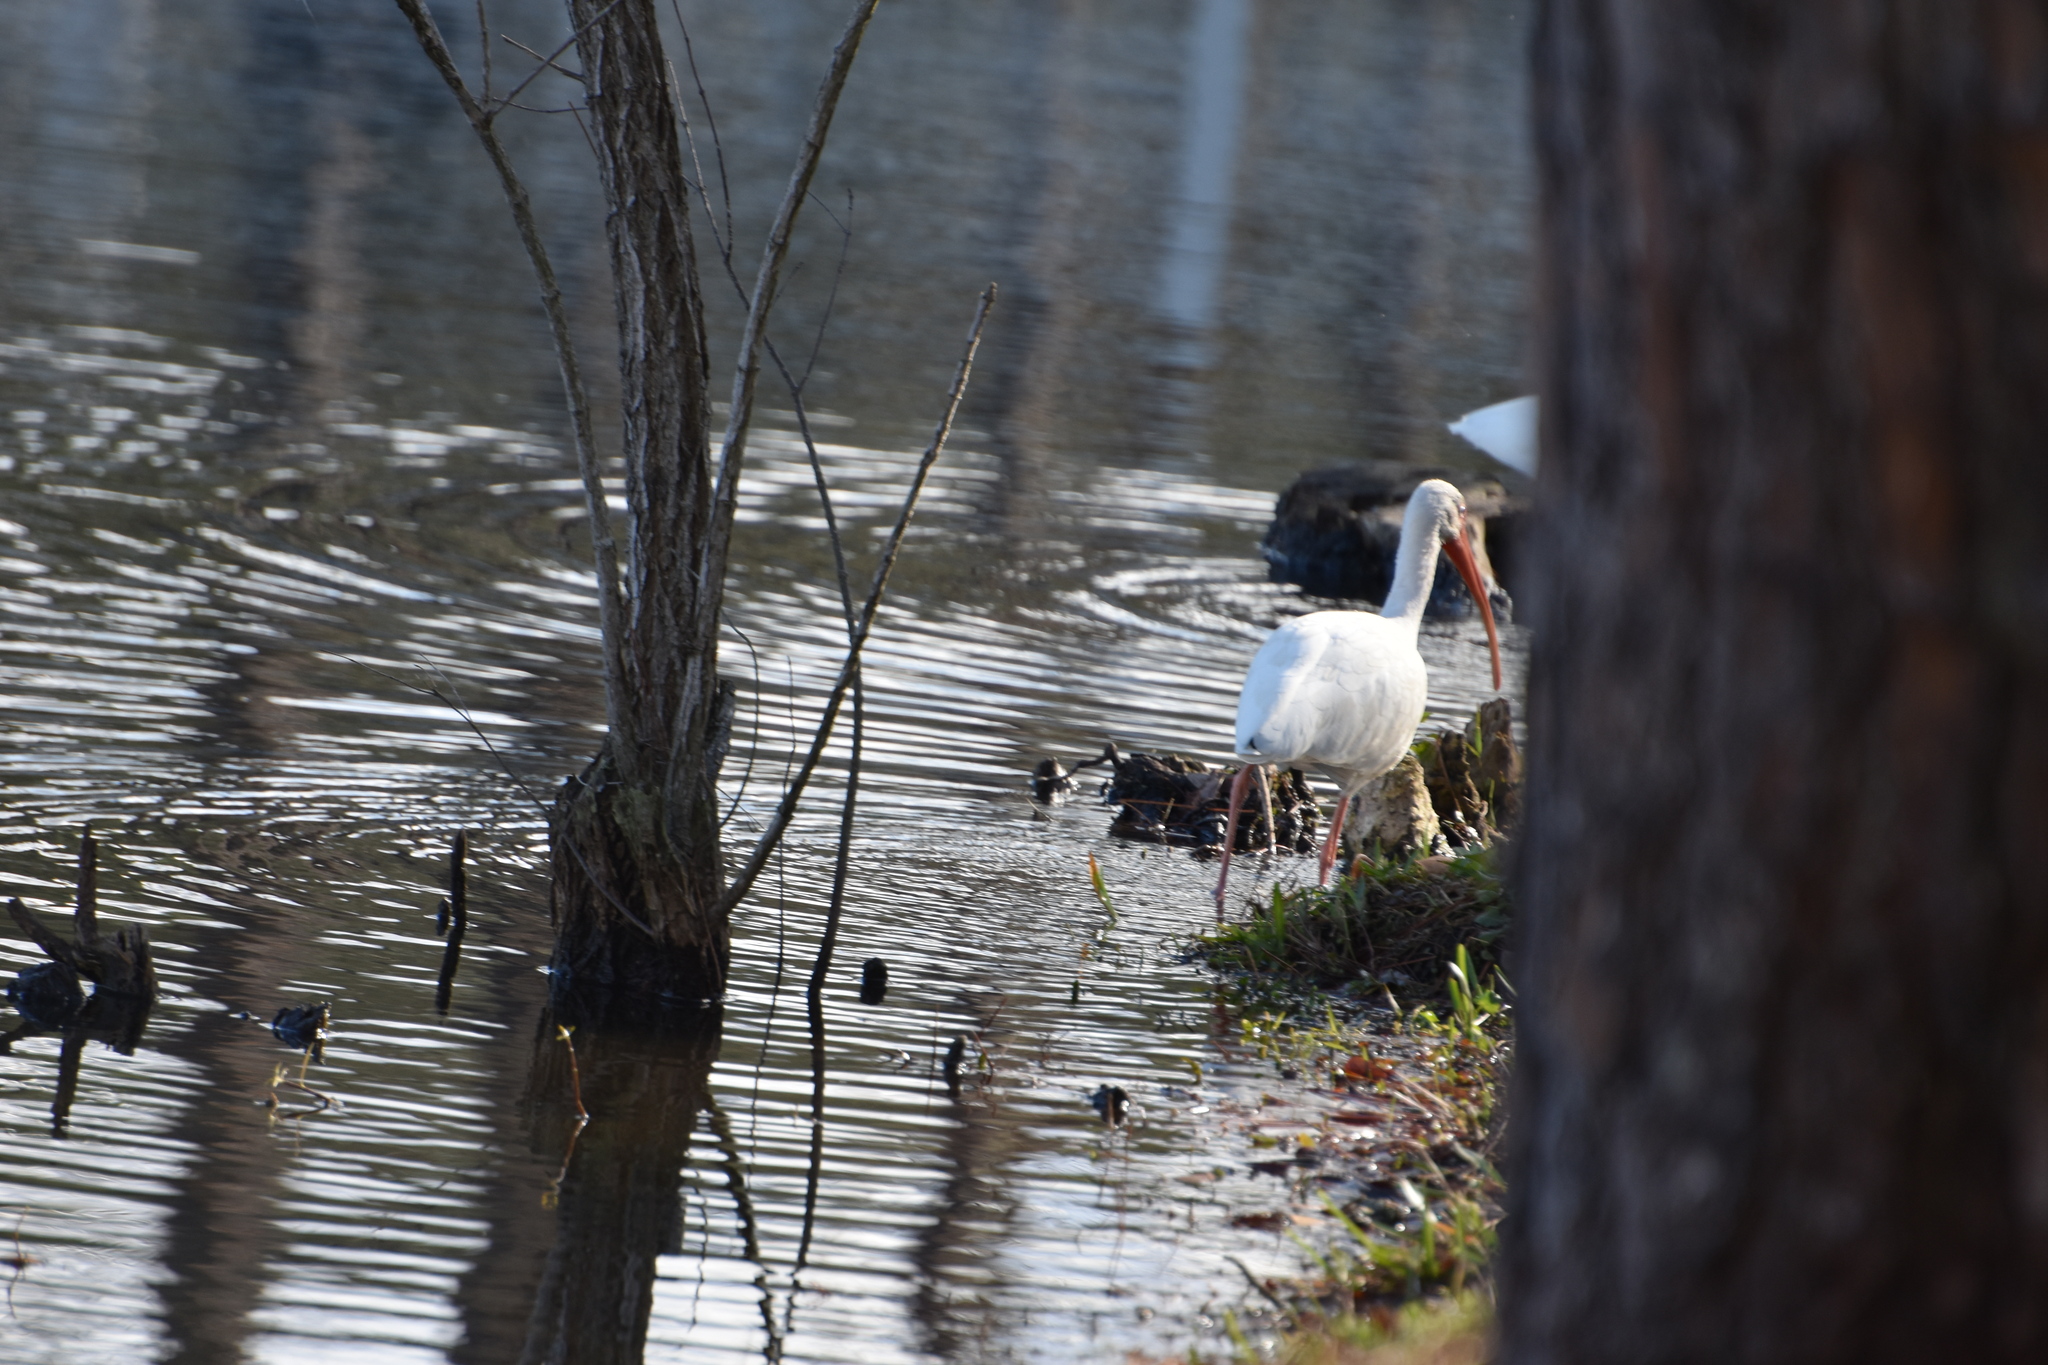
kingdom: Animalia
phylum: Chordata
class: Aves
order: Pelecaniformes
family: Threskiornithidae
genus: Eudocimus
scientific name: Eudocimus albus
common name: White ibis
